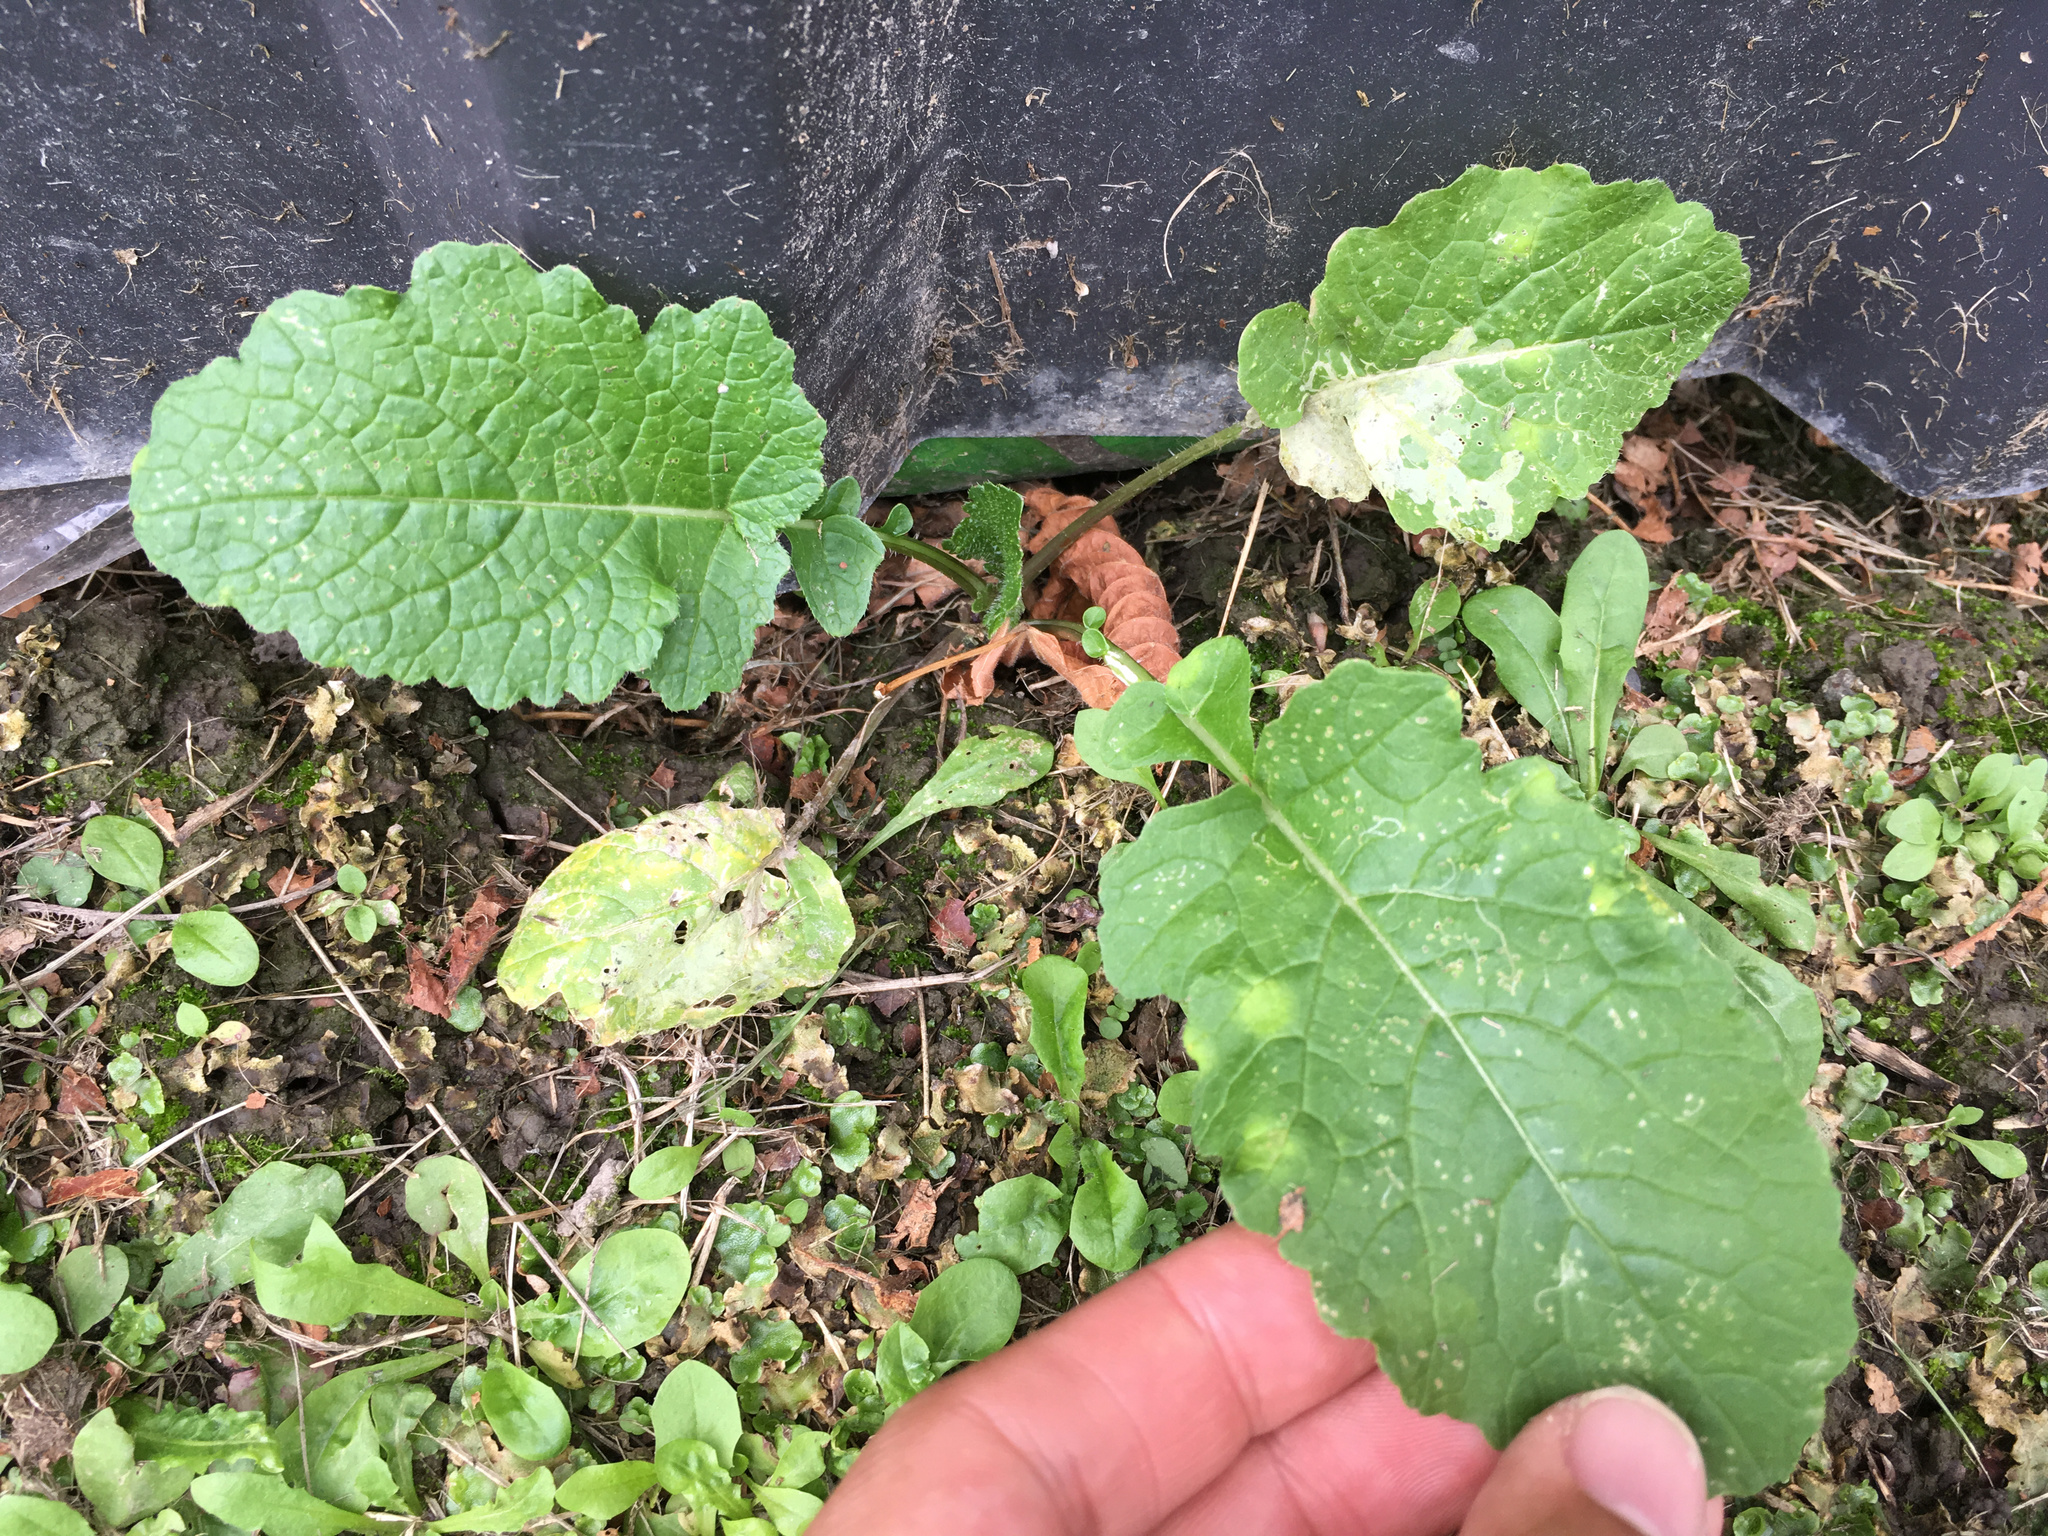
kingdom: Plantae
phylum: Tracheophyta
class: Magnoliopsida
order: Brassicales
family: Brassicaceae
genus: Raphanus
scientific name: Raphanus raphanistrum
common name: Wild radish
